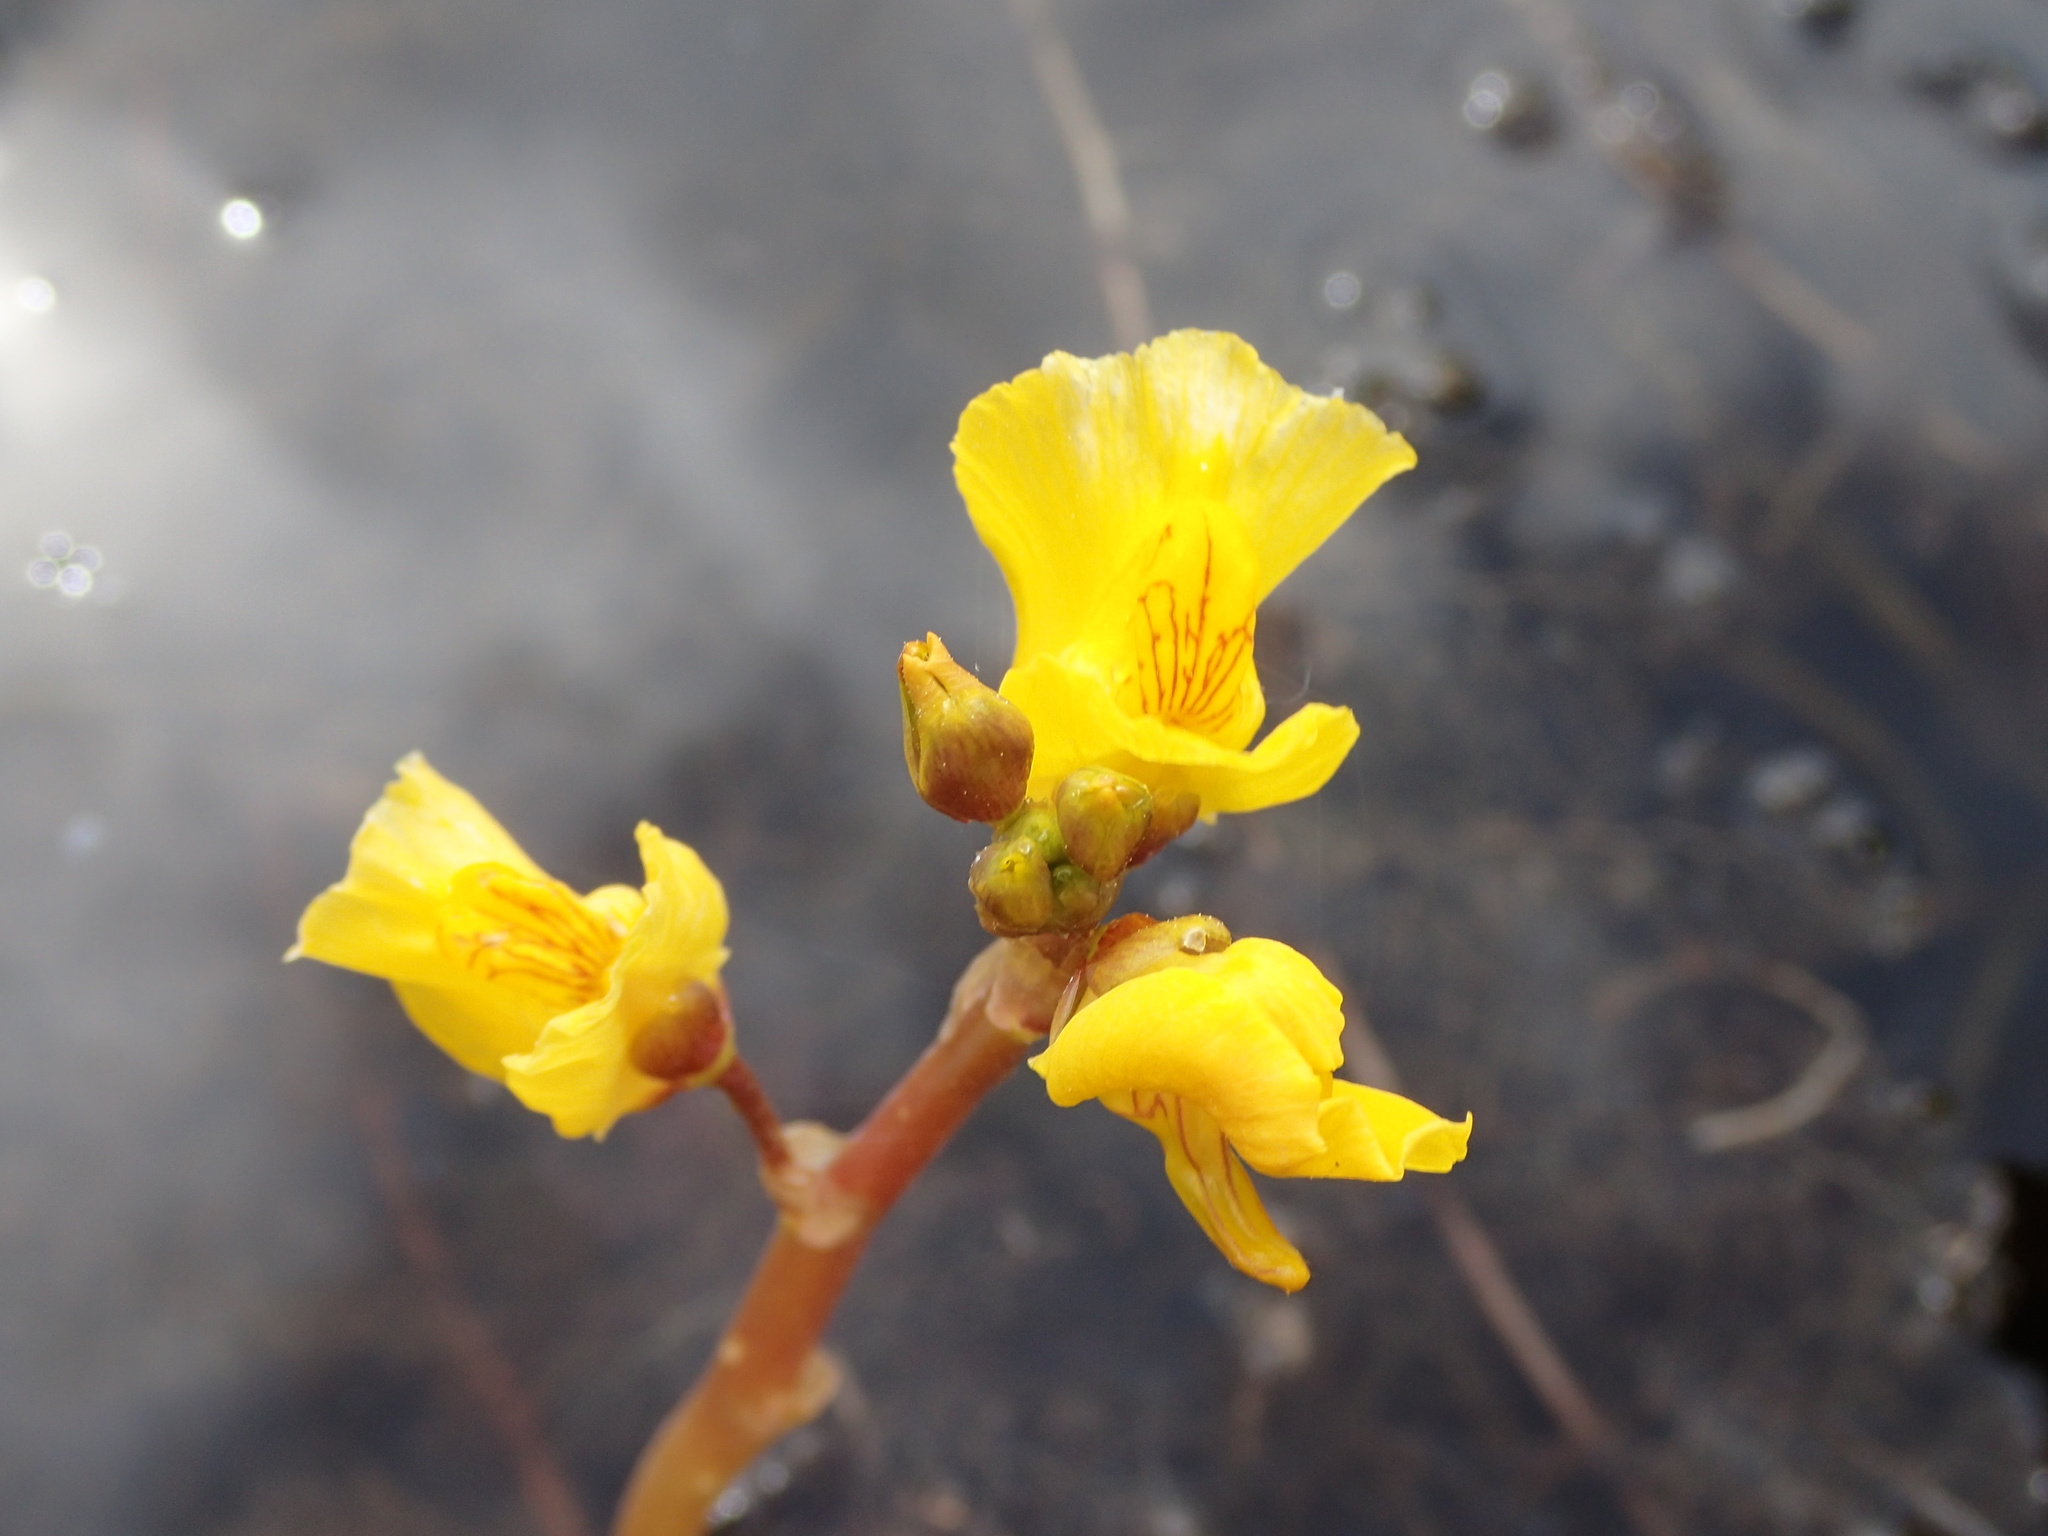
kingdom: Plantae
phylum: Tracheophyta
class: Magnoliopsida
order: Lamiales
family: Lentibulariaceae
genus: Utricularia
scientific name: Utricularia macrorhiza
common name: Common bladderwort
